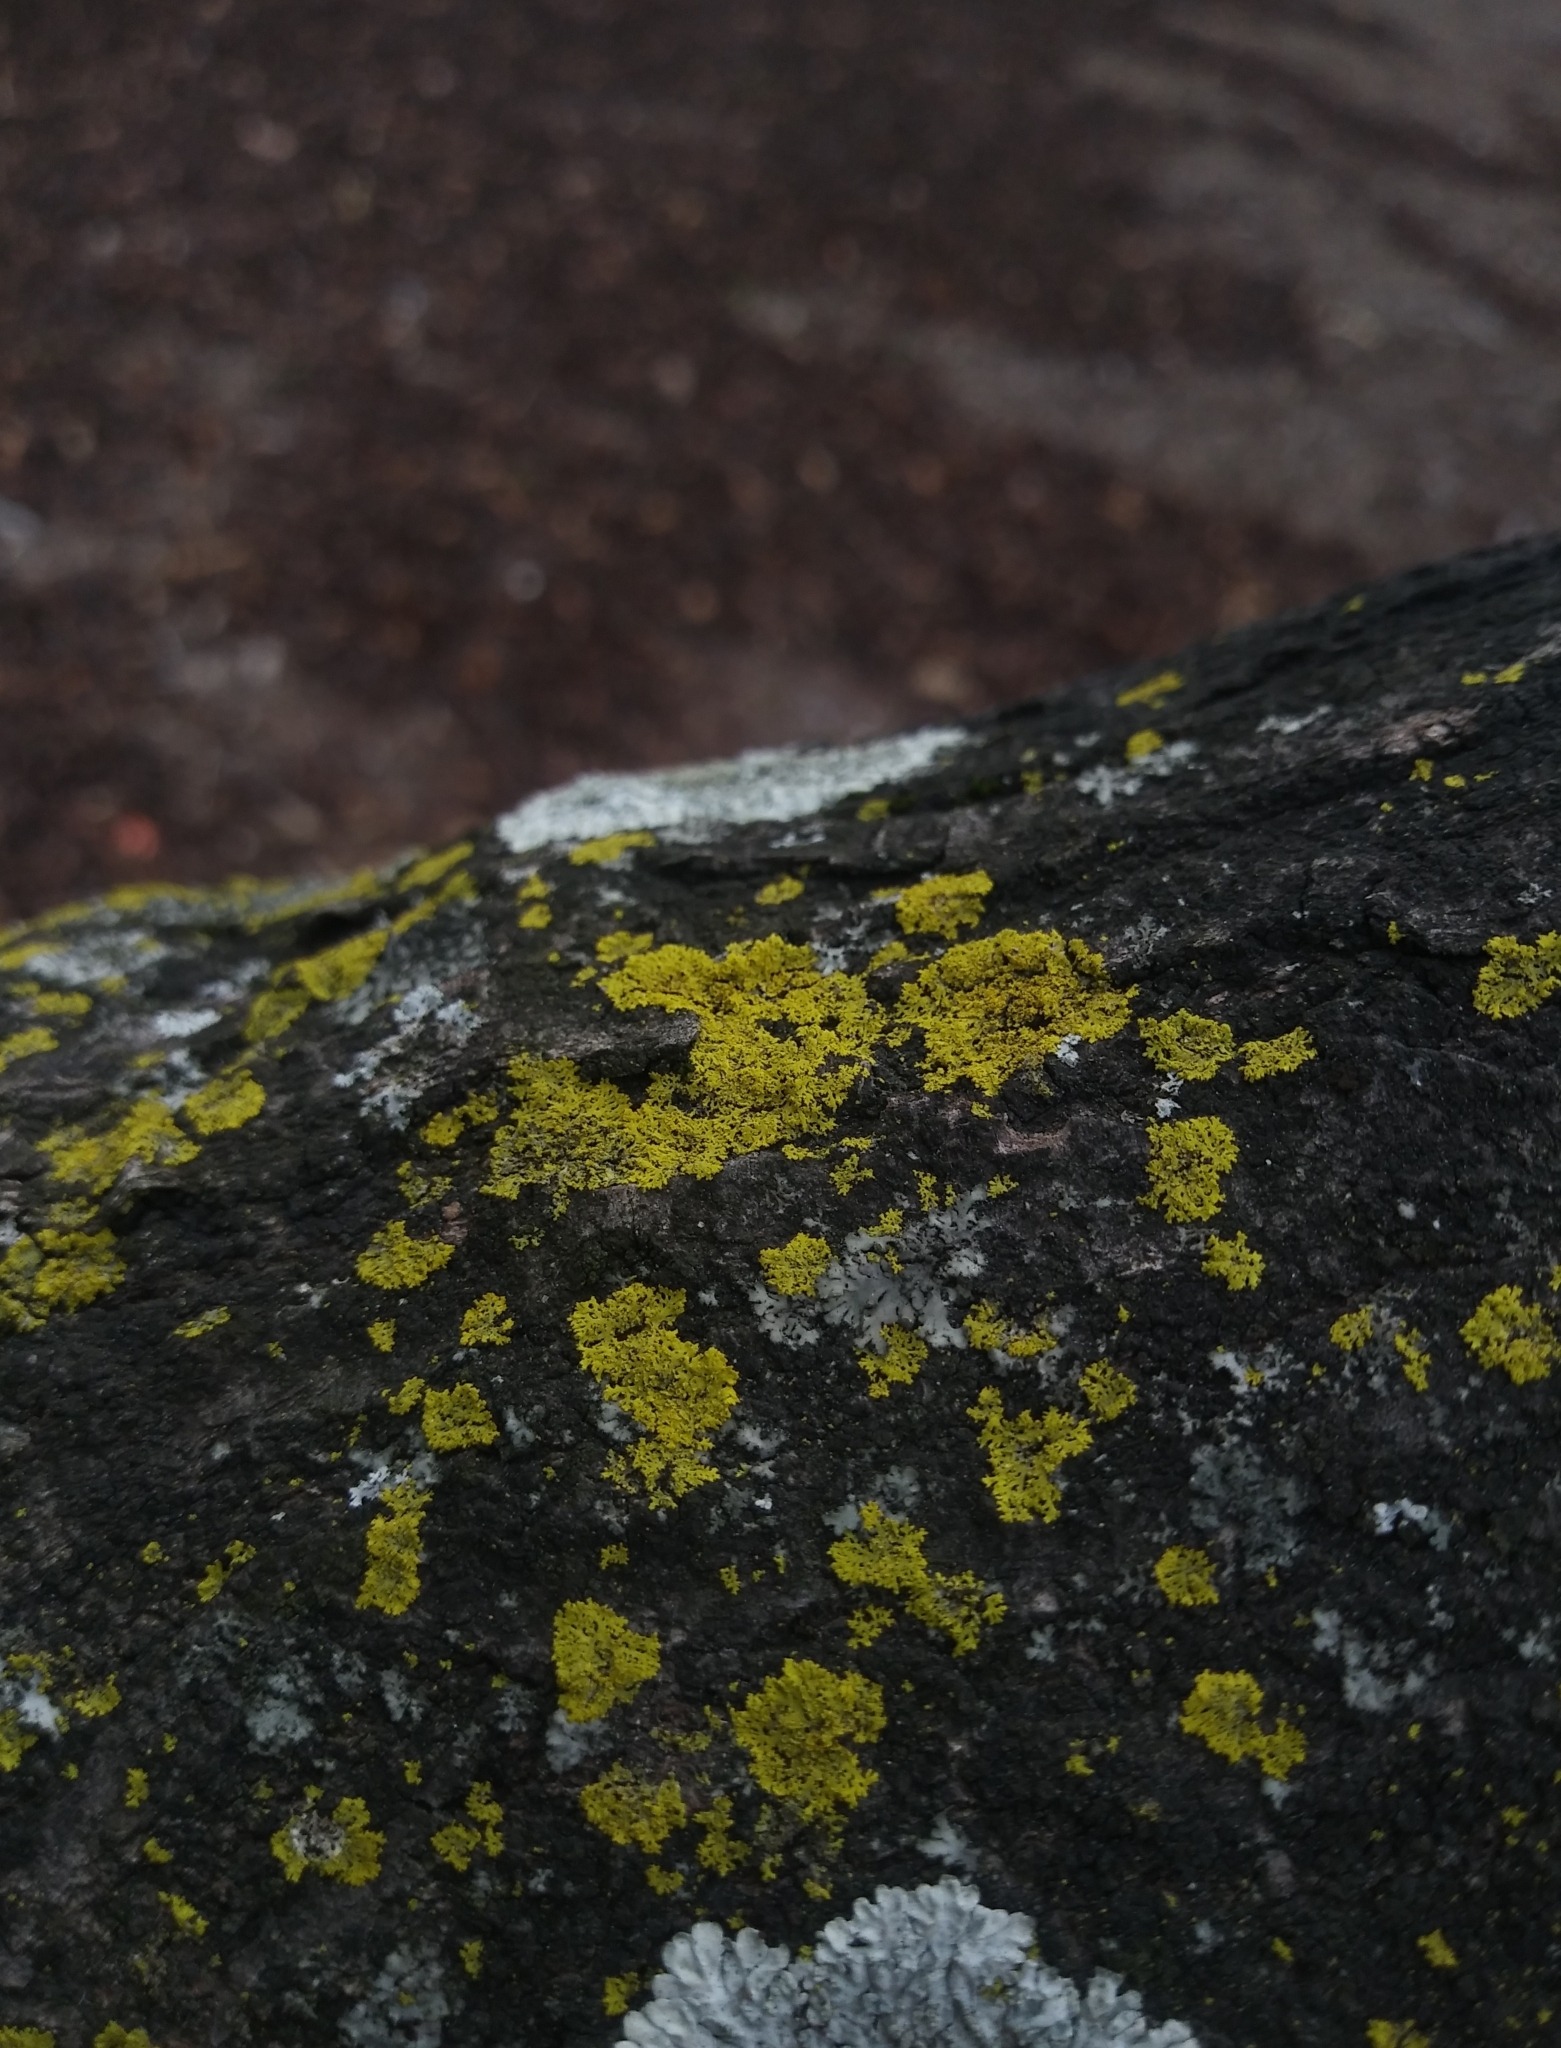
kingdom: Fungi
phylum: Ascomycota
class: Candelariomycetes
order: Candelariales
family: Candelariaceae
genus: Candelaria
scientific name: Candelaria concolor
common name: Candleflame lichen
